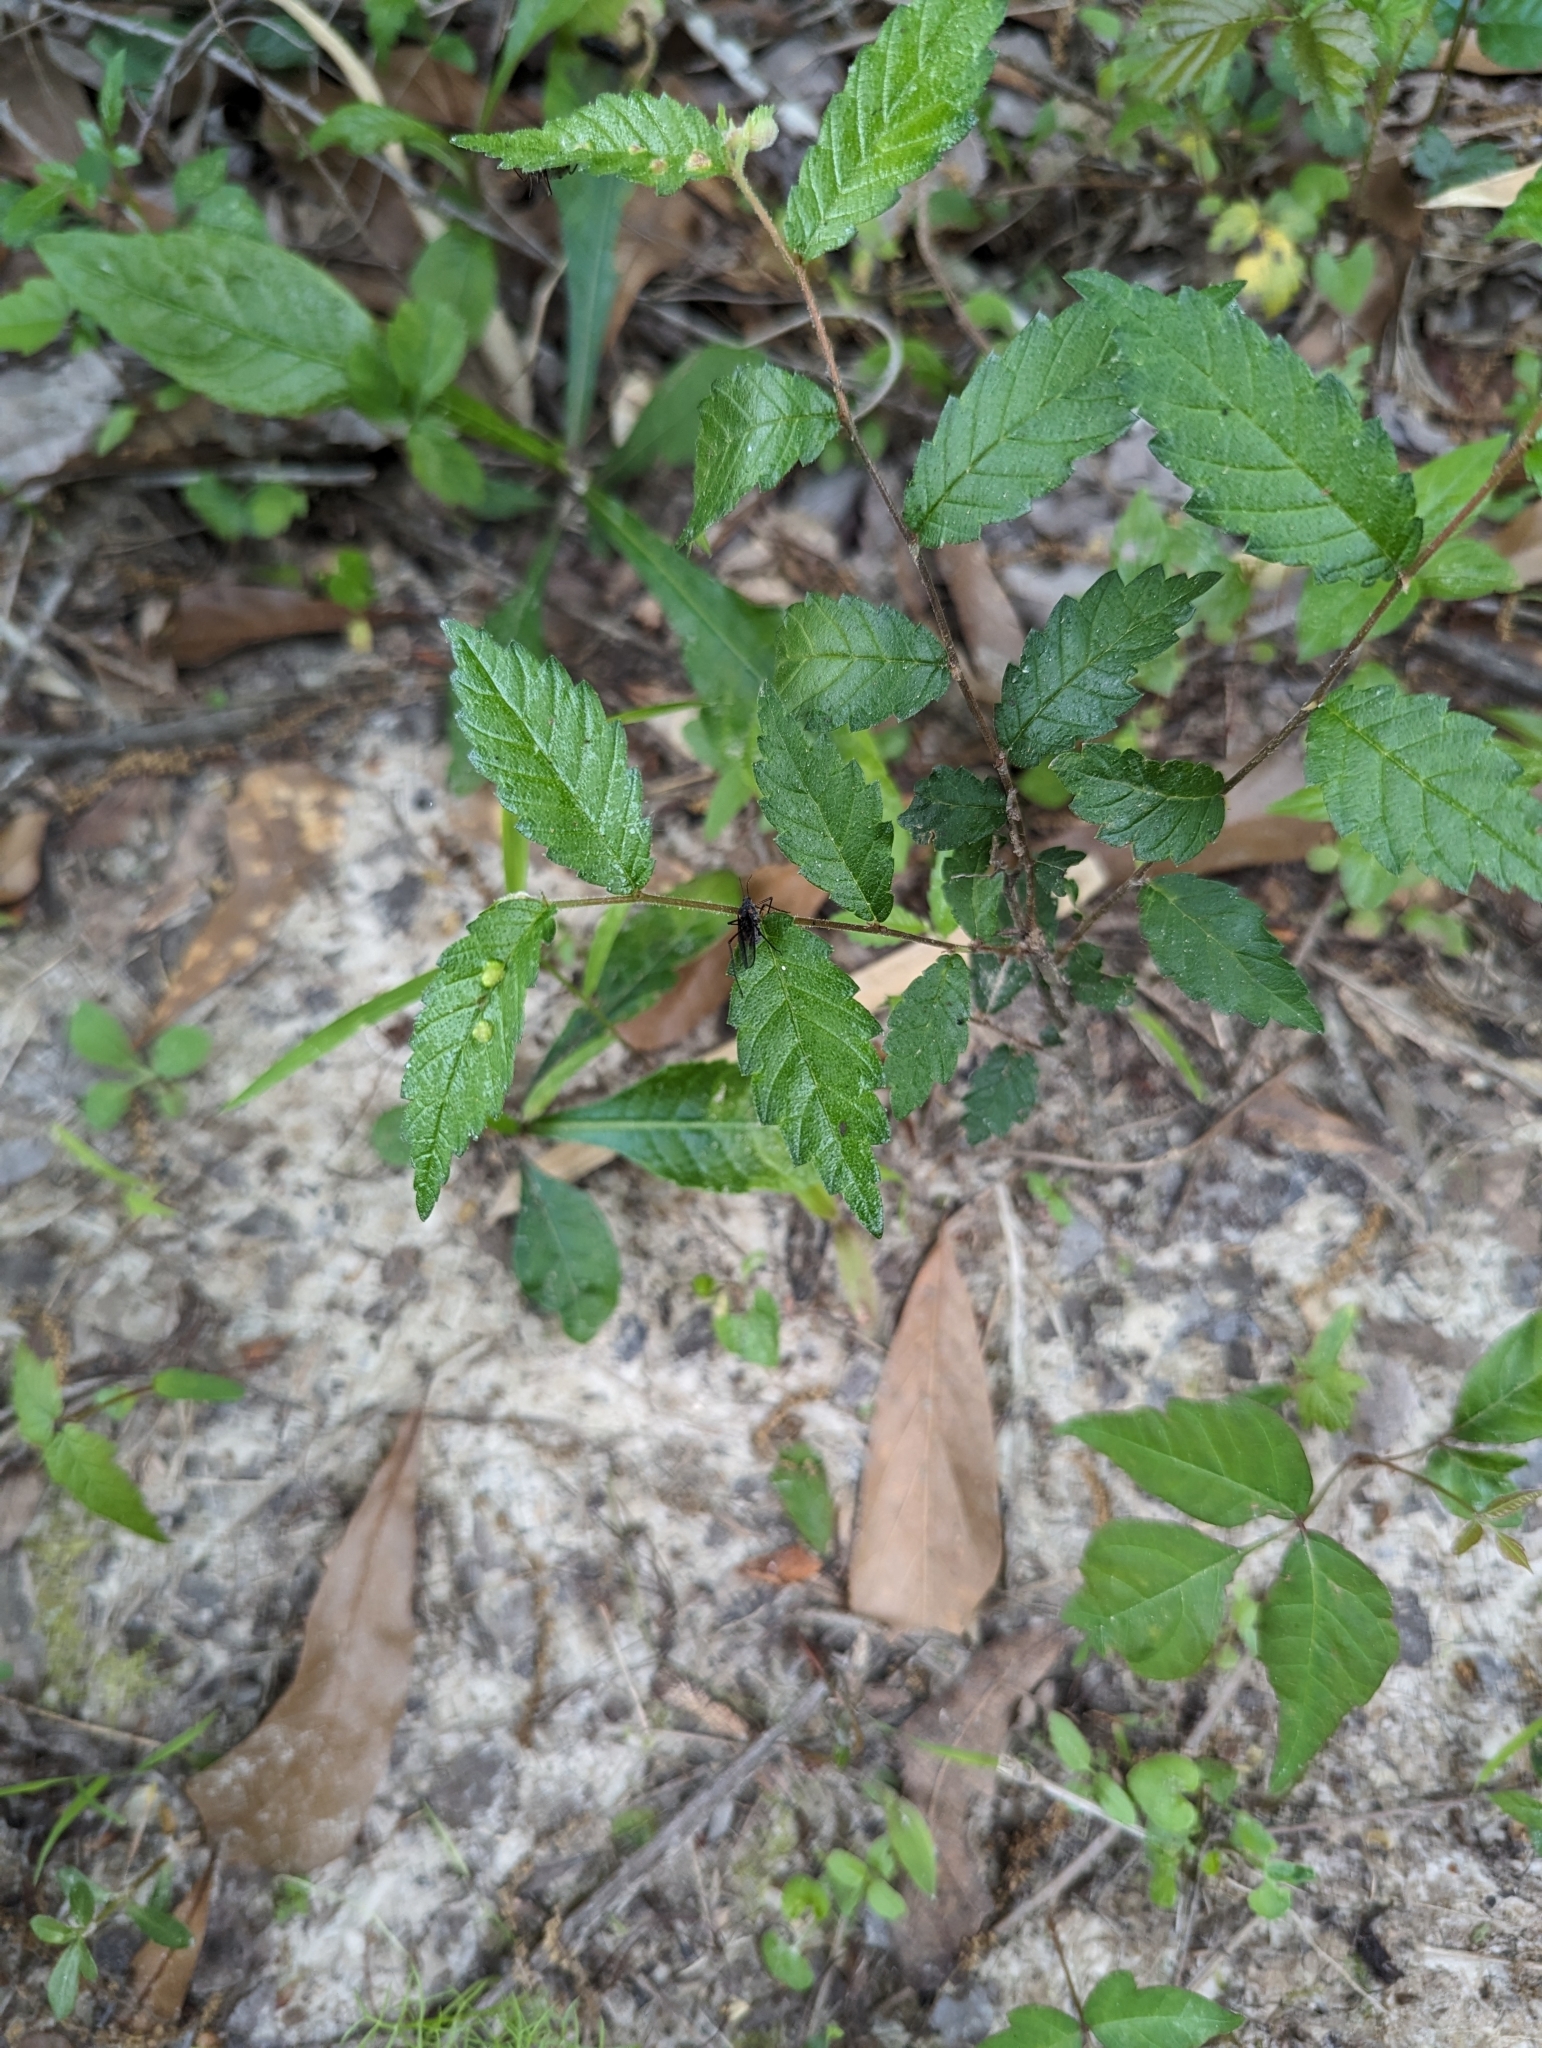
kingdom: Animalia
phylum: Arthropoda
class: Insecta
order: Hemiptera
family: Aphididae
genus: Longistigma
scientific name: Longistigma caryae
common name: Giant bark aphid
